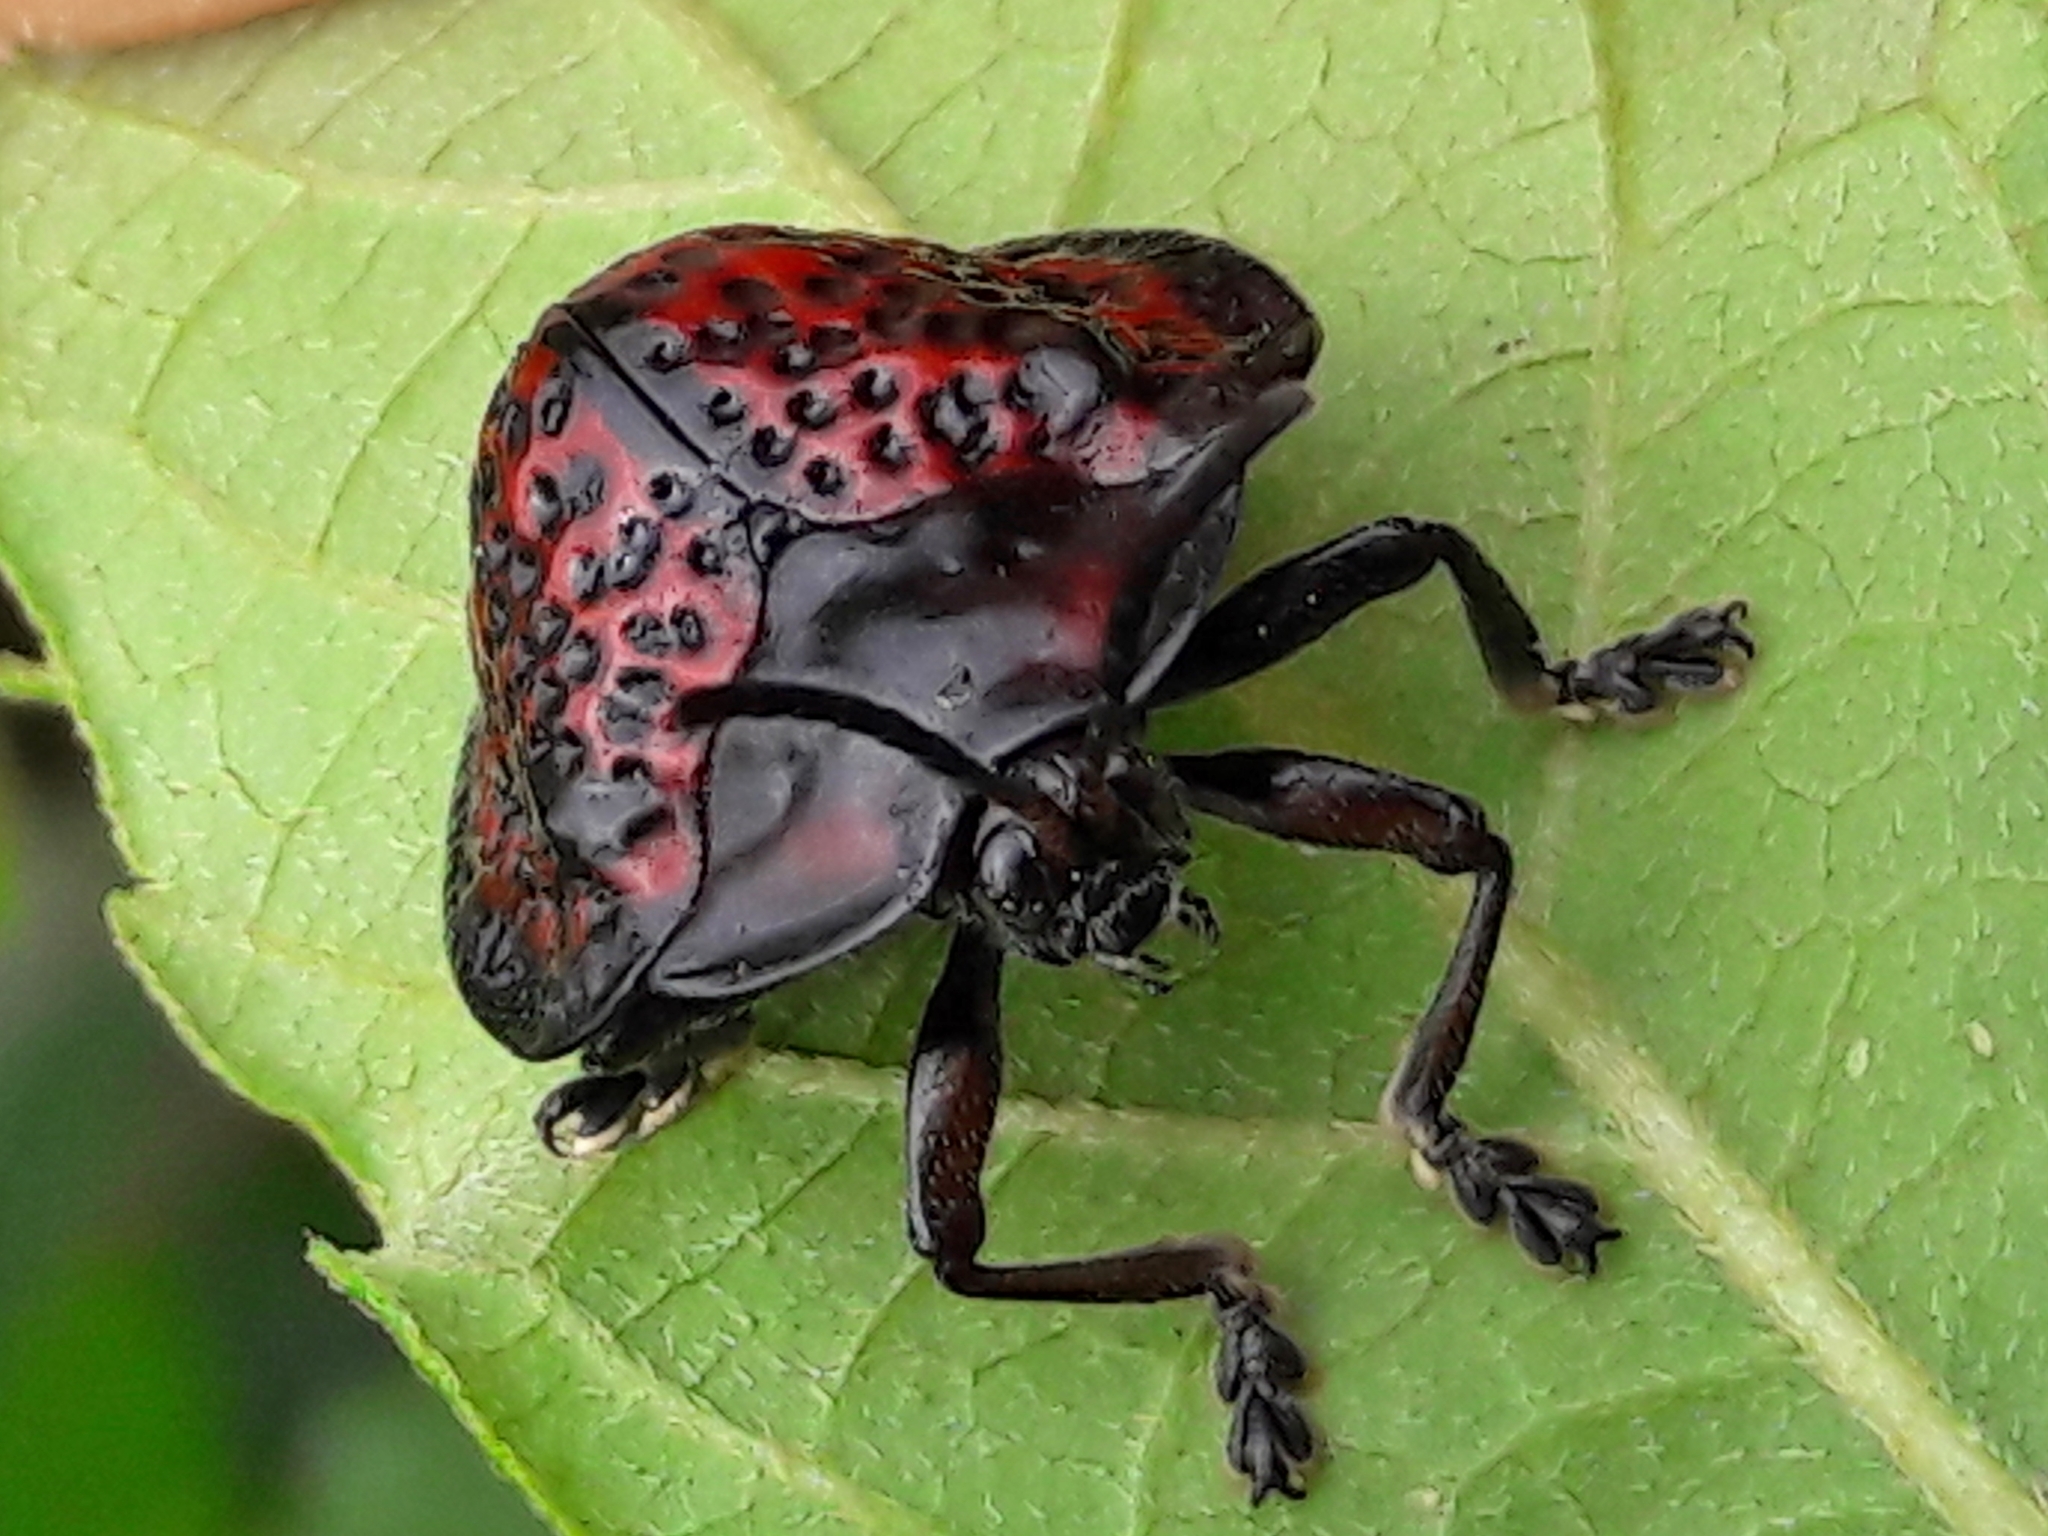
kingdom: Animalia
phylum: Arthropoda
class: Insecta
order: Coleoptera
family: Chrysomelidae
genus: Canistra
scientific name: Canistra irrorata
